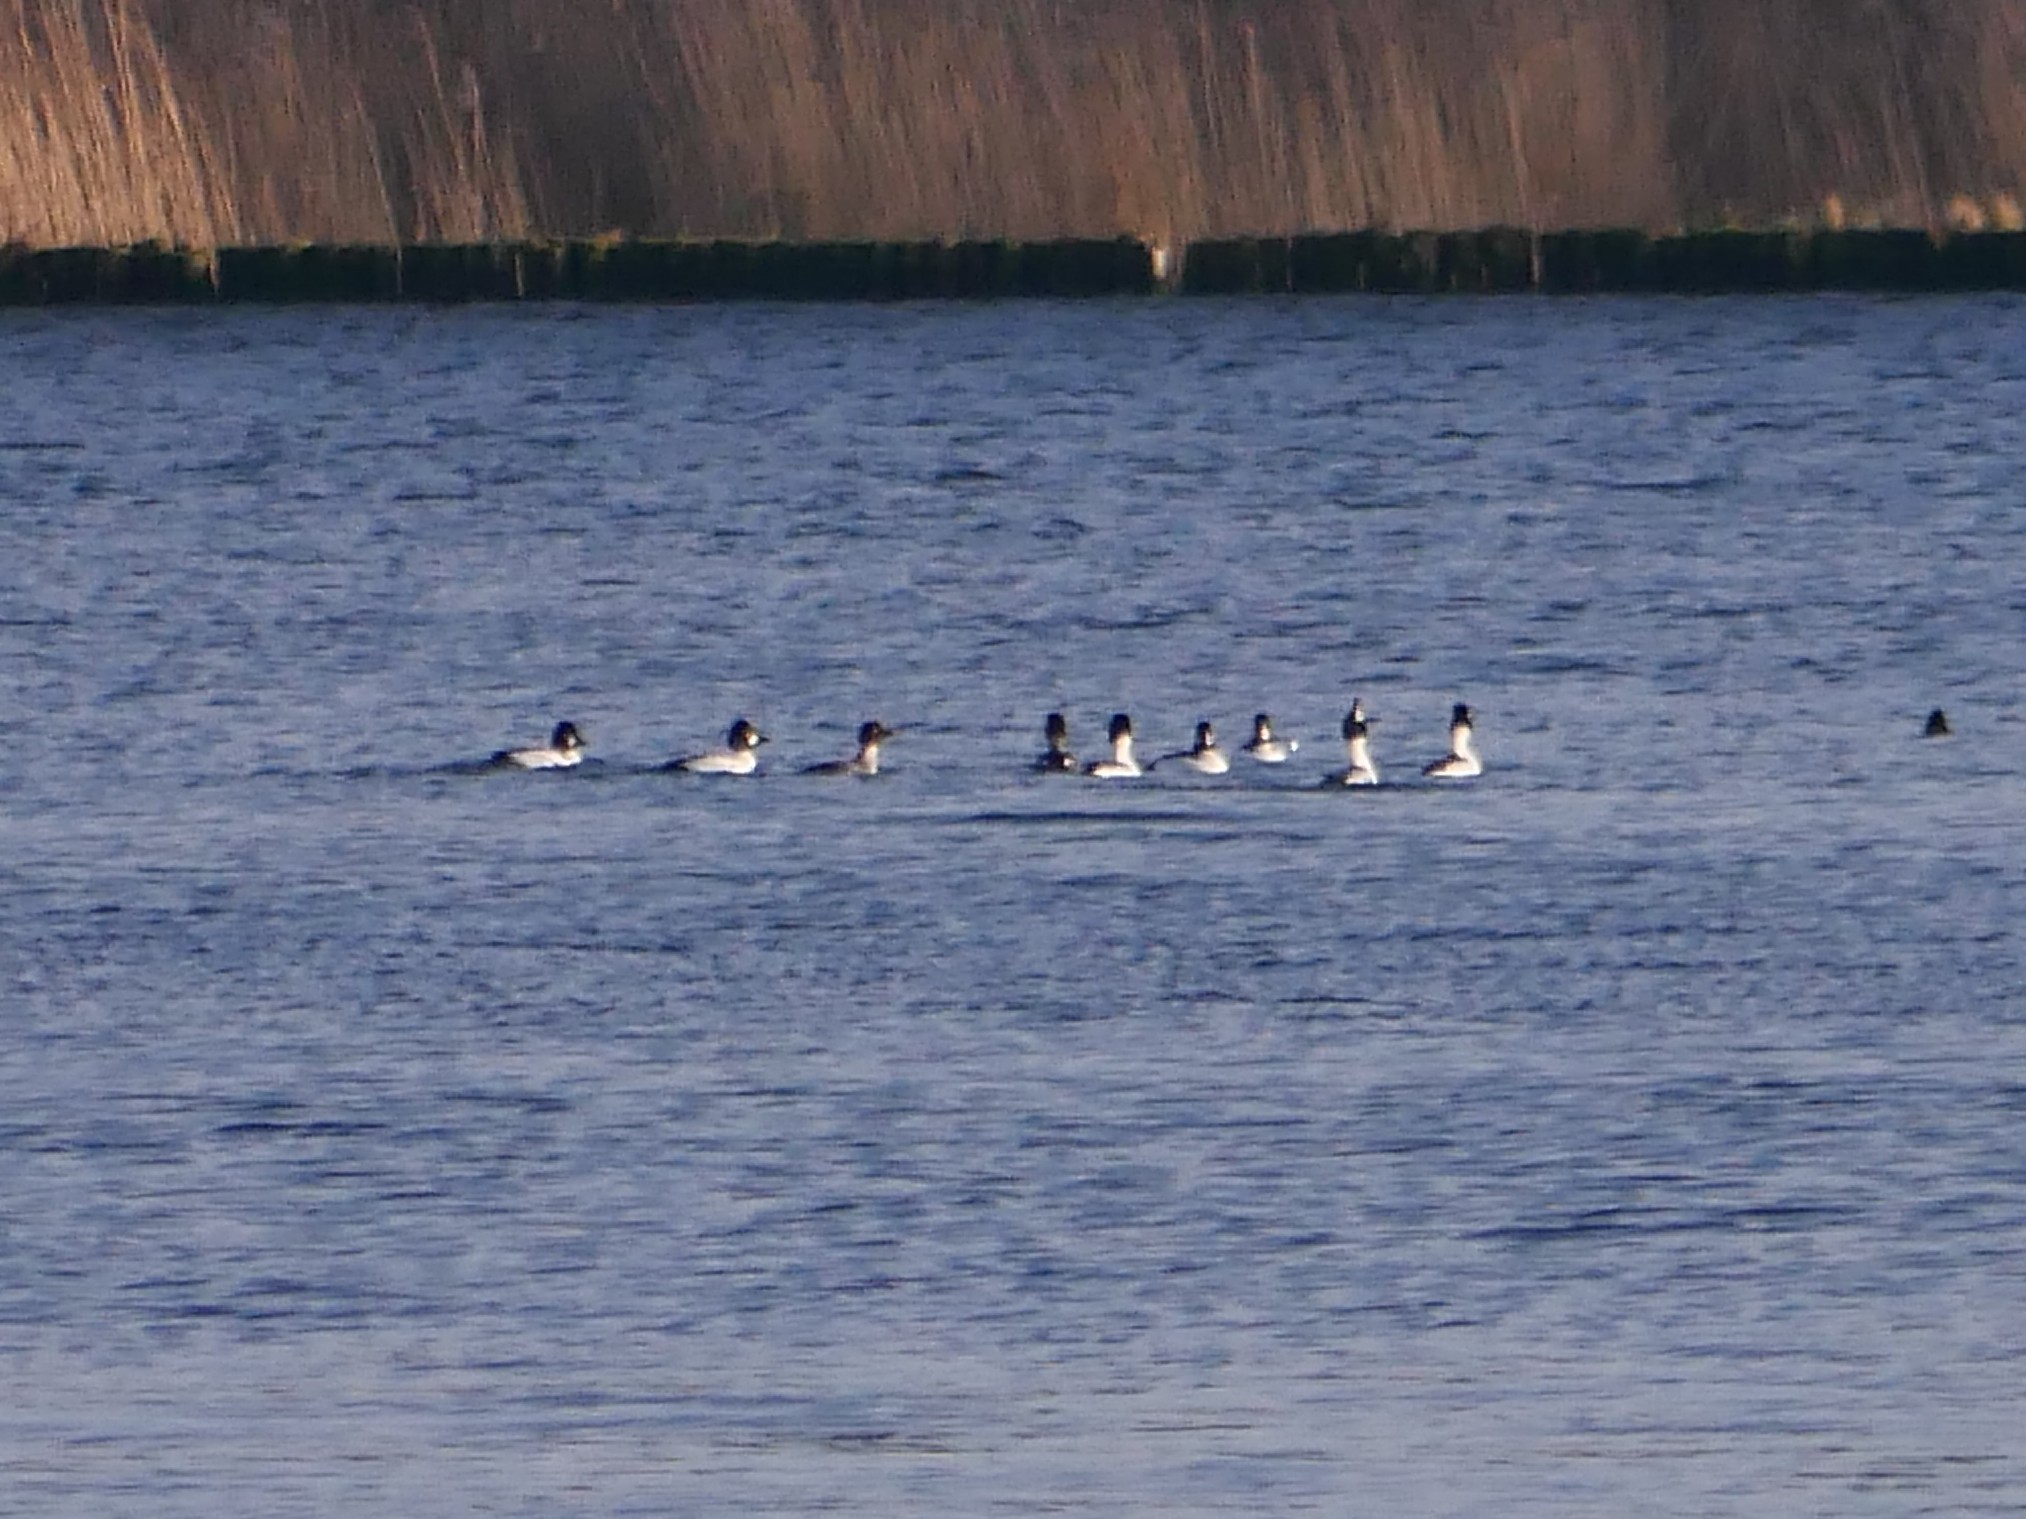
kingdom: Animalia
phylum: Chordata
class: Aves
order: Anseriformes
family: Anatidae
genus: Bucephala
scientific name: Bucephala clangula
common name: Common goldeneye
